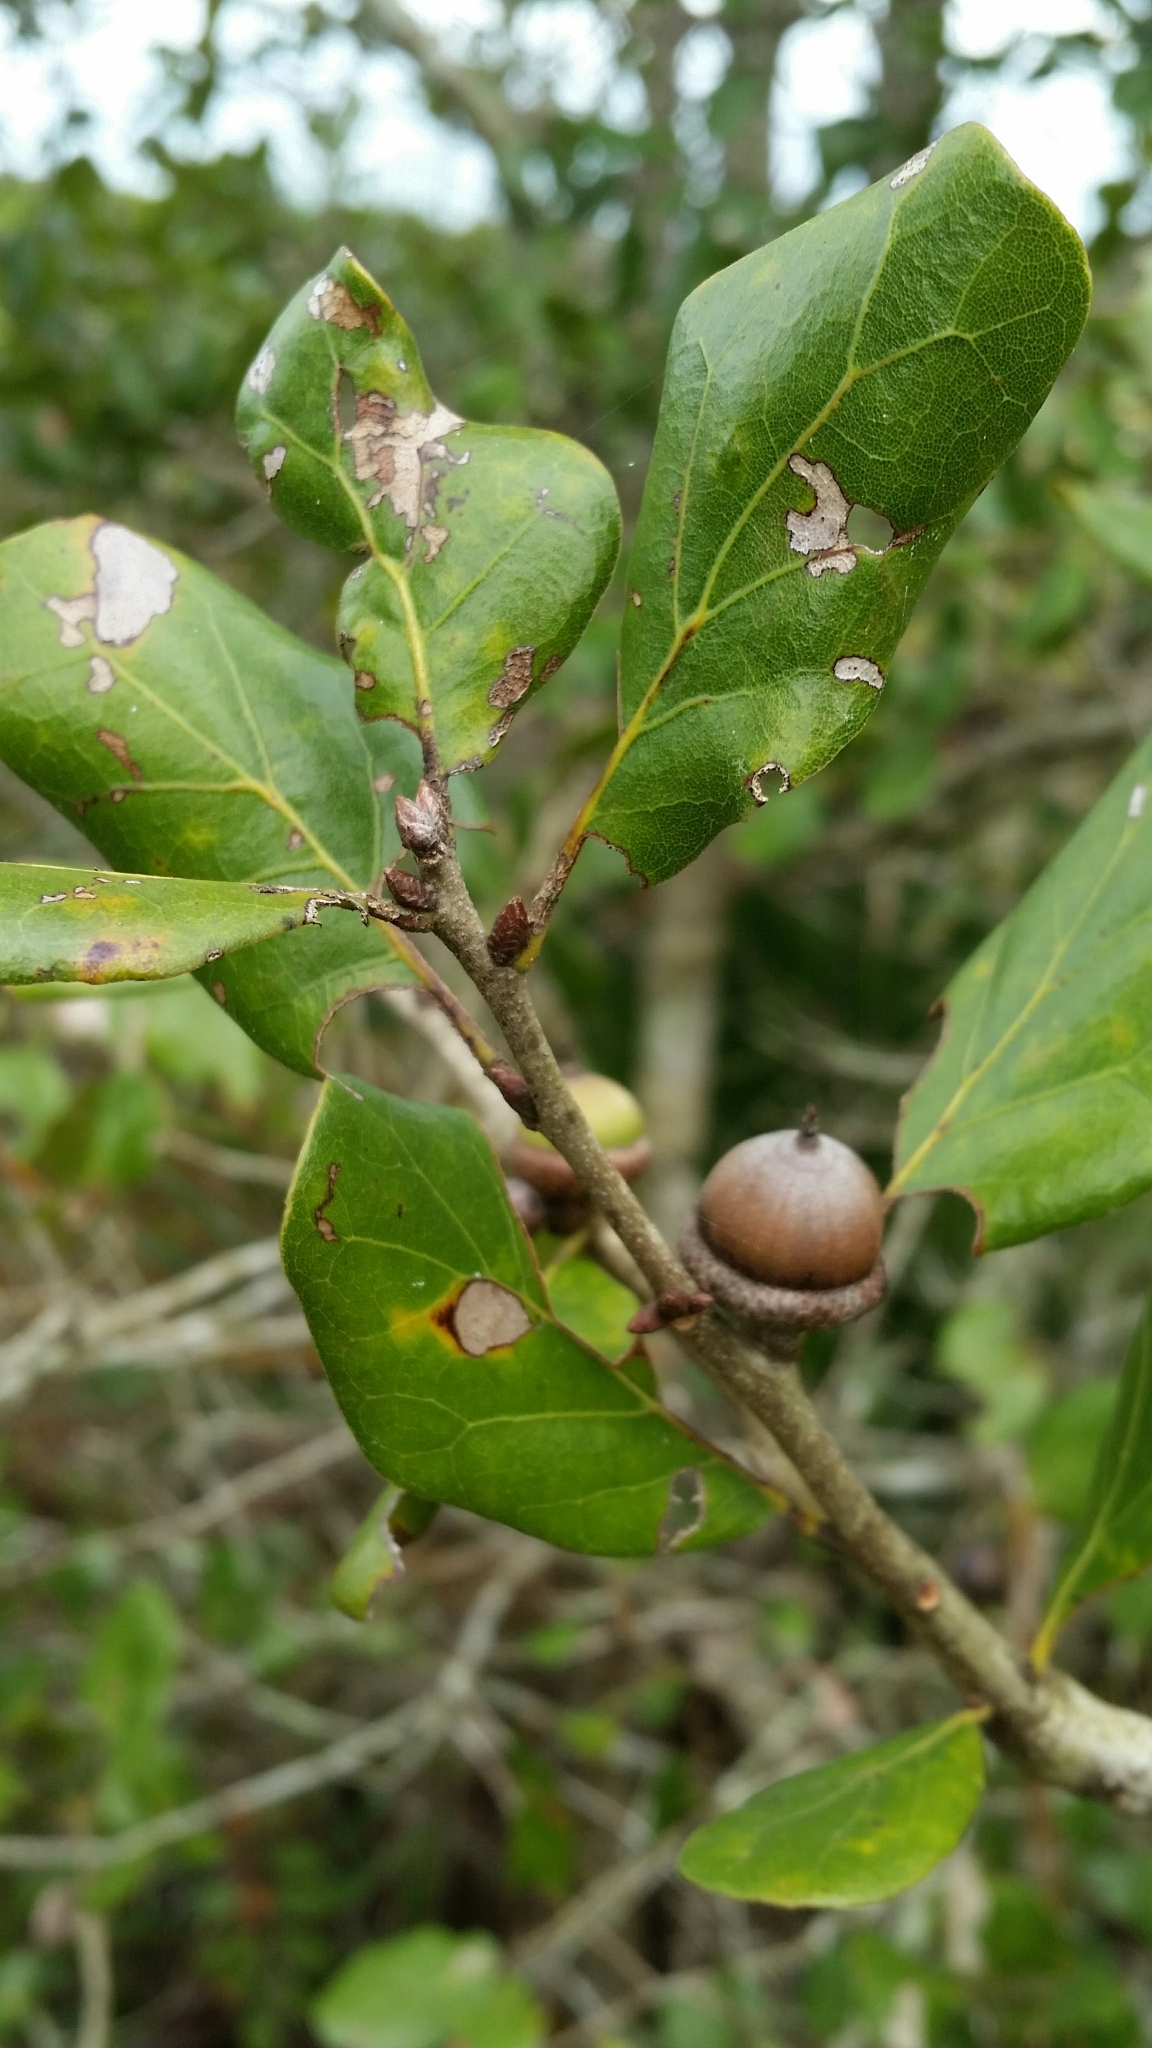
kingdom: Plantae
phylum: Tracheophyta
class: Magnoliopsida
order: Fagales
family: Fagaceae
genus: Quercus
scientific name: Quercus myrtifolia
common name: Myrtle oak
